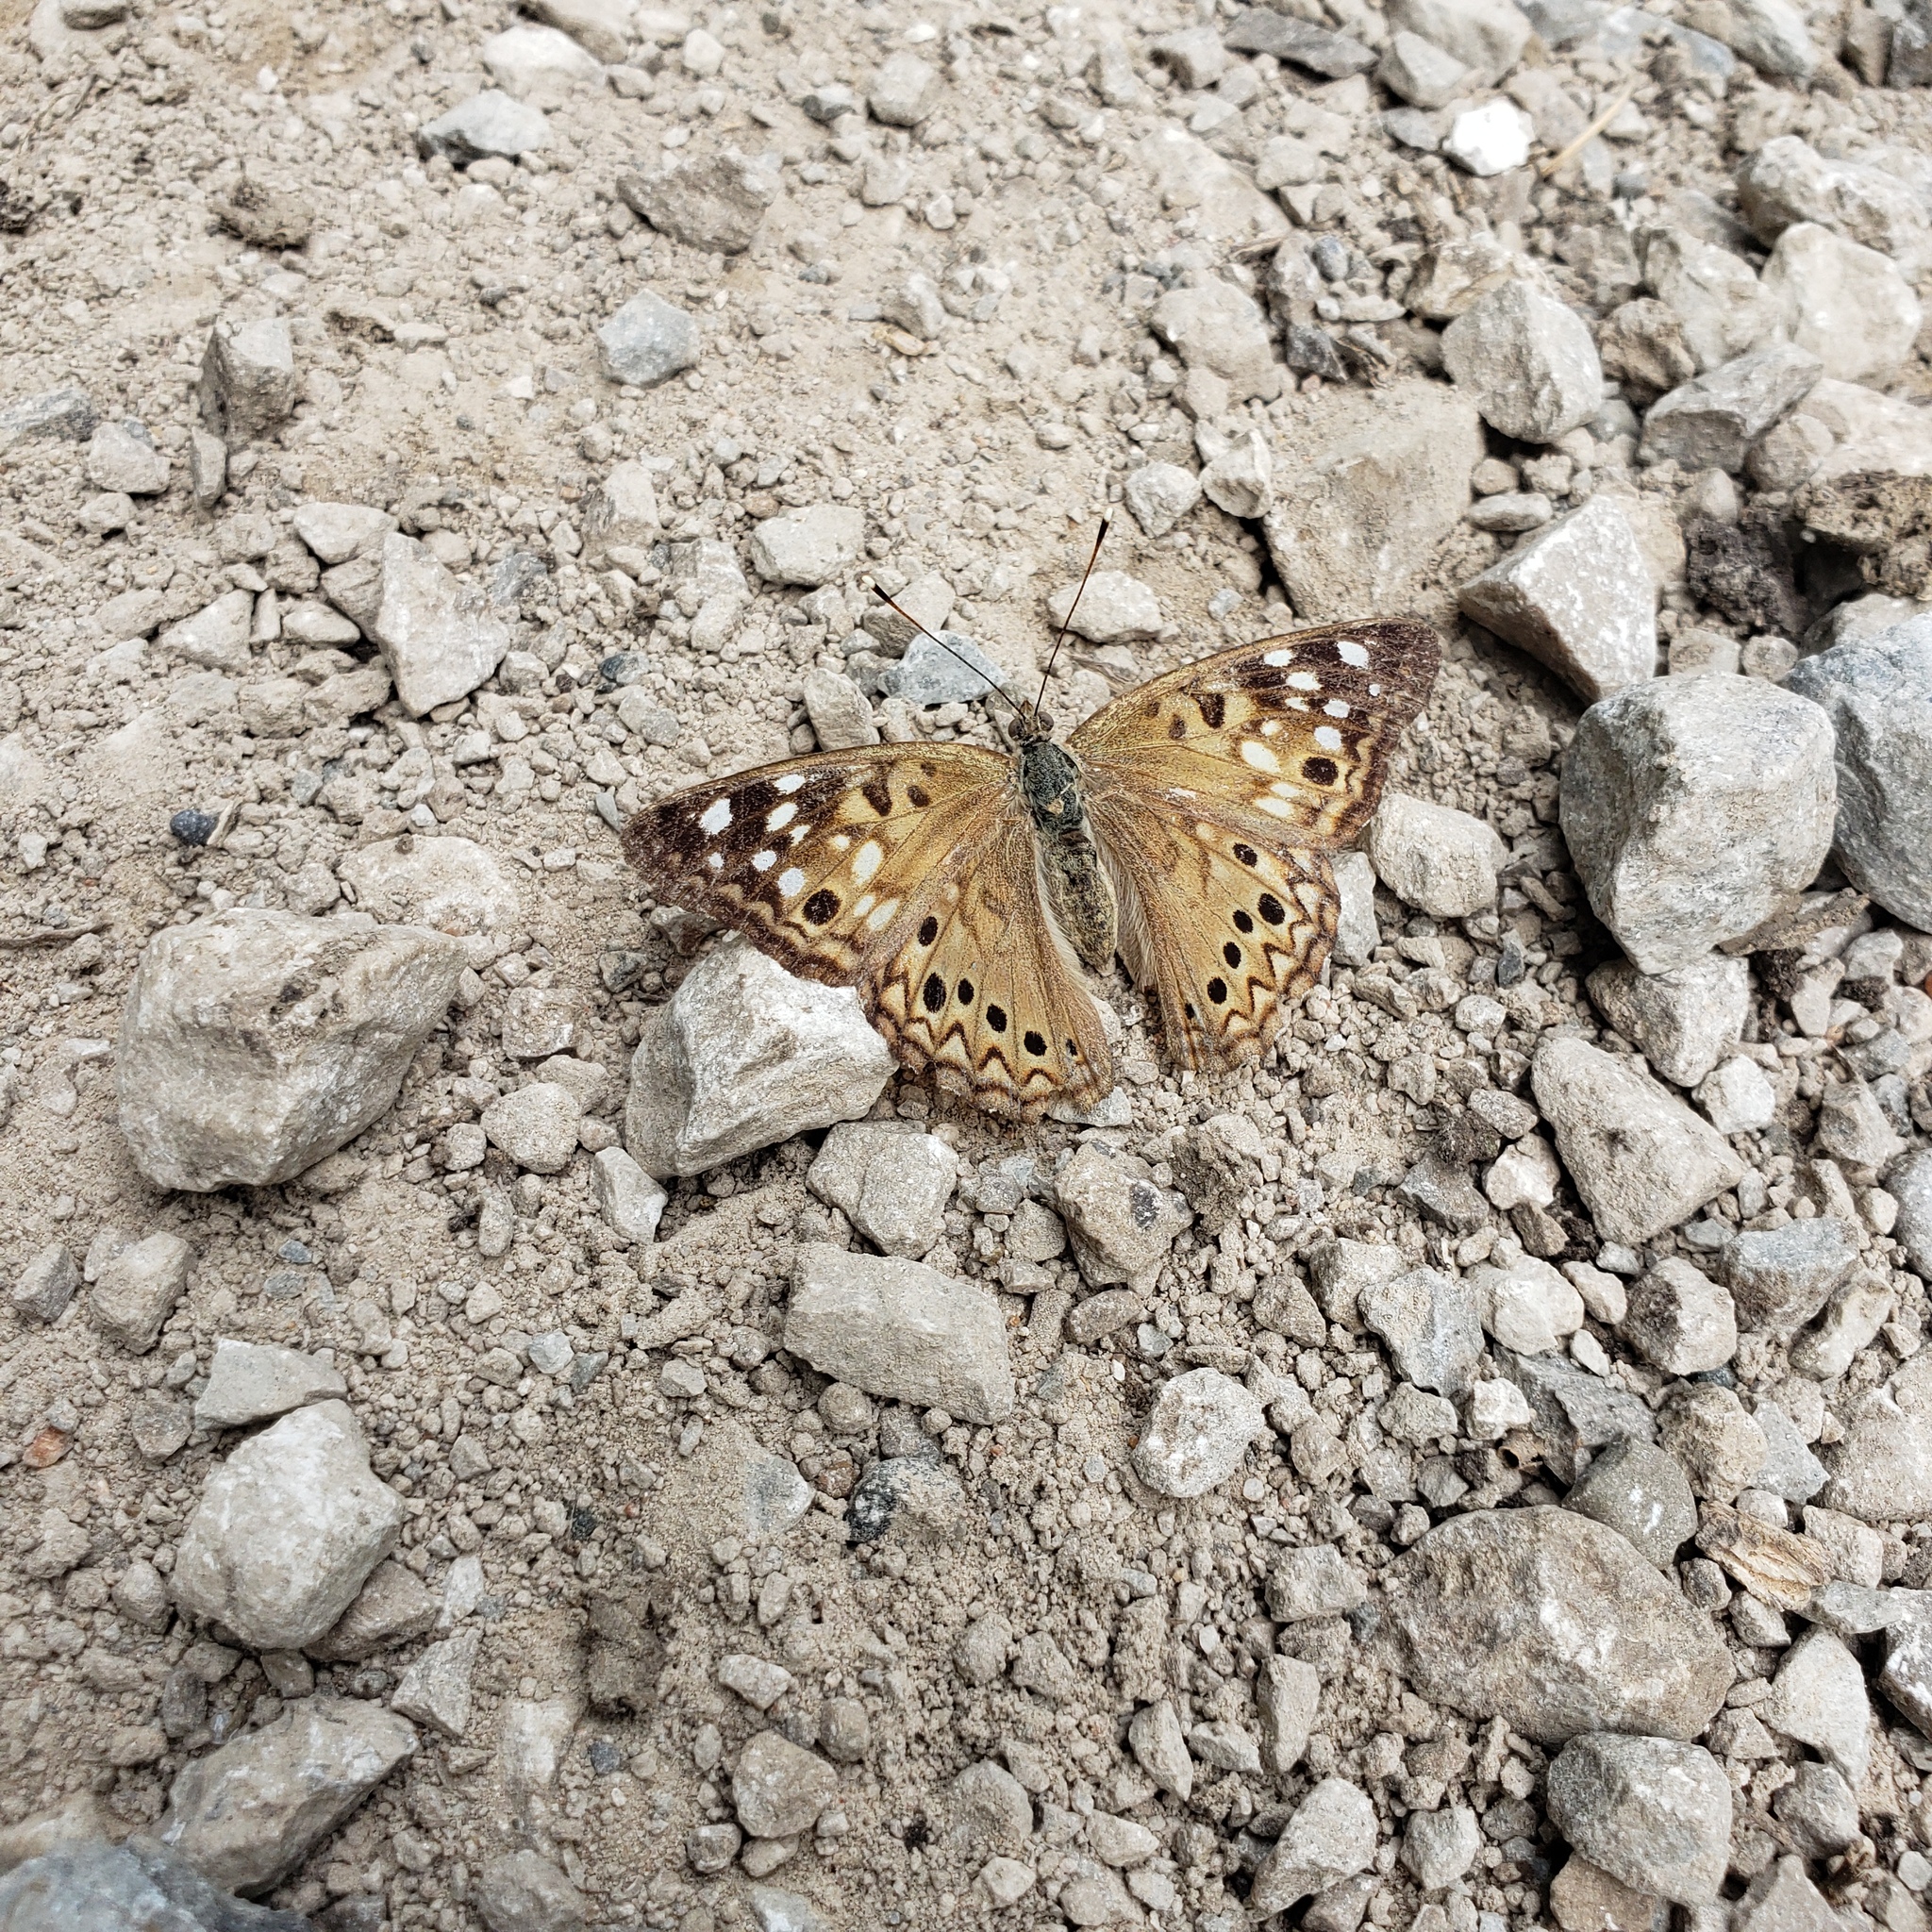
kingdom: Animalia
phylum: Arthropoda
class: Insecta
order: Lepidoptera
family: Nymphalidae
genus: Asterocampa
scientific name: Asterocampa celtis
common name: Hackberry emperor
